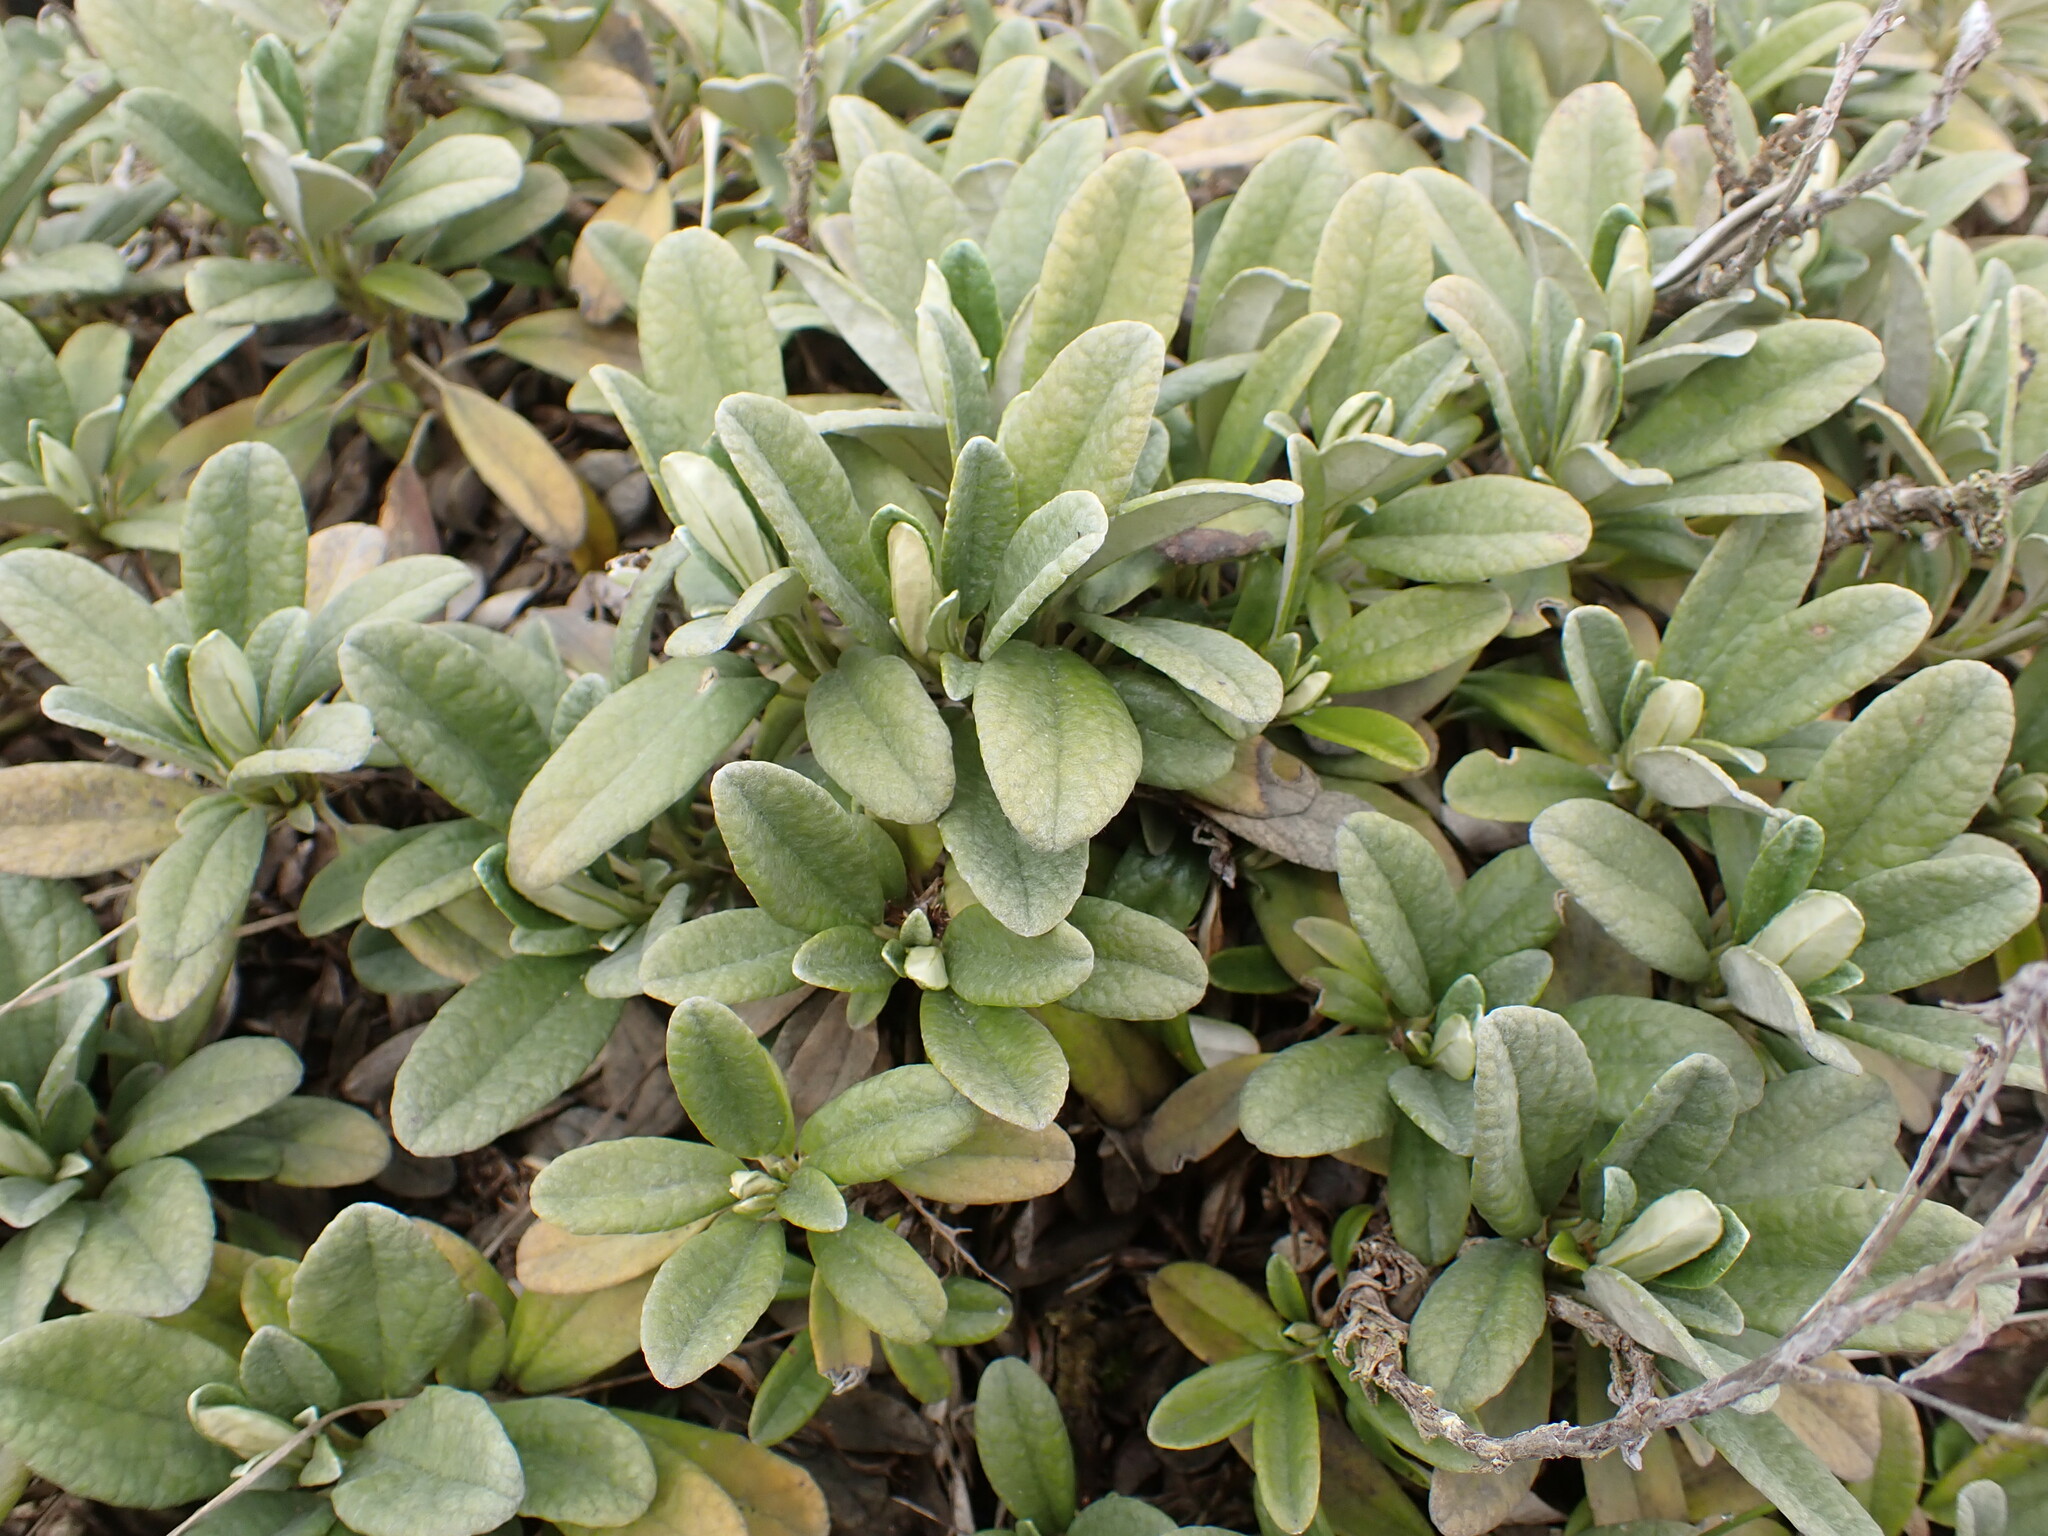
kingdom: Plantae
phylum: Tracheophyta
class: Magnoliopsida
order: Asterales
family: Asteraceae
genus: Brachyglottis
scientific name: Brachyglottis revoluta
